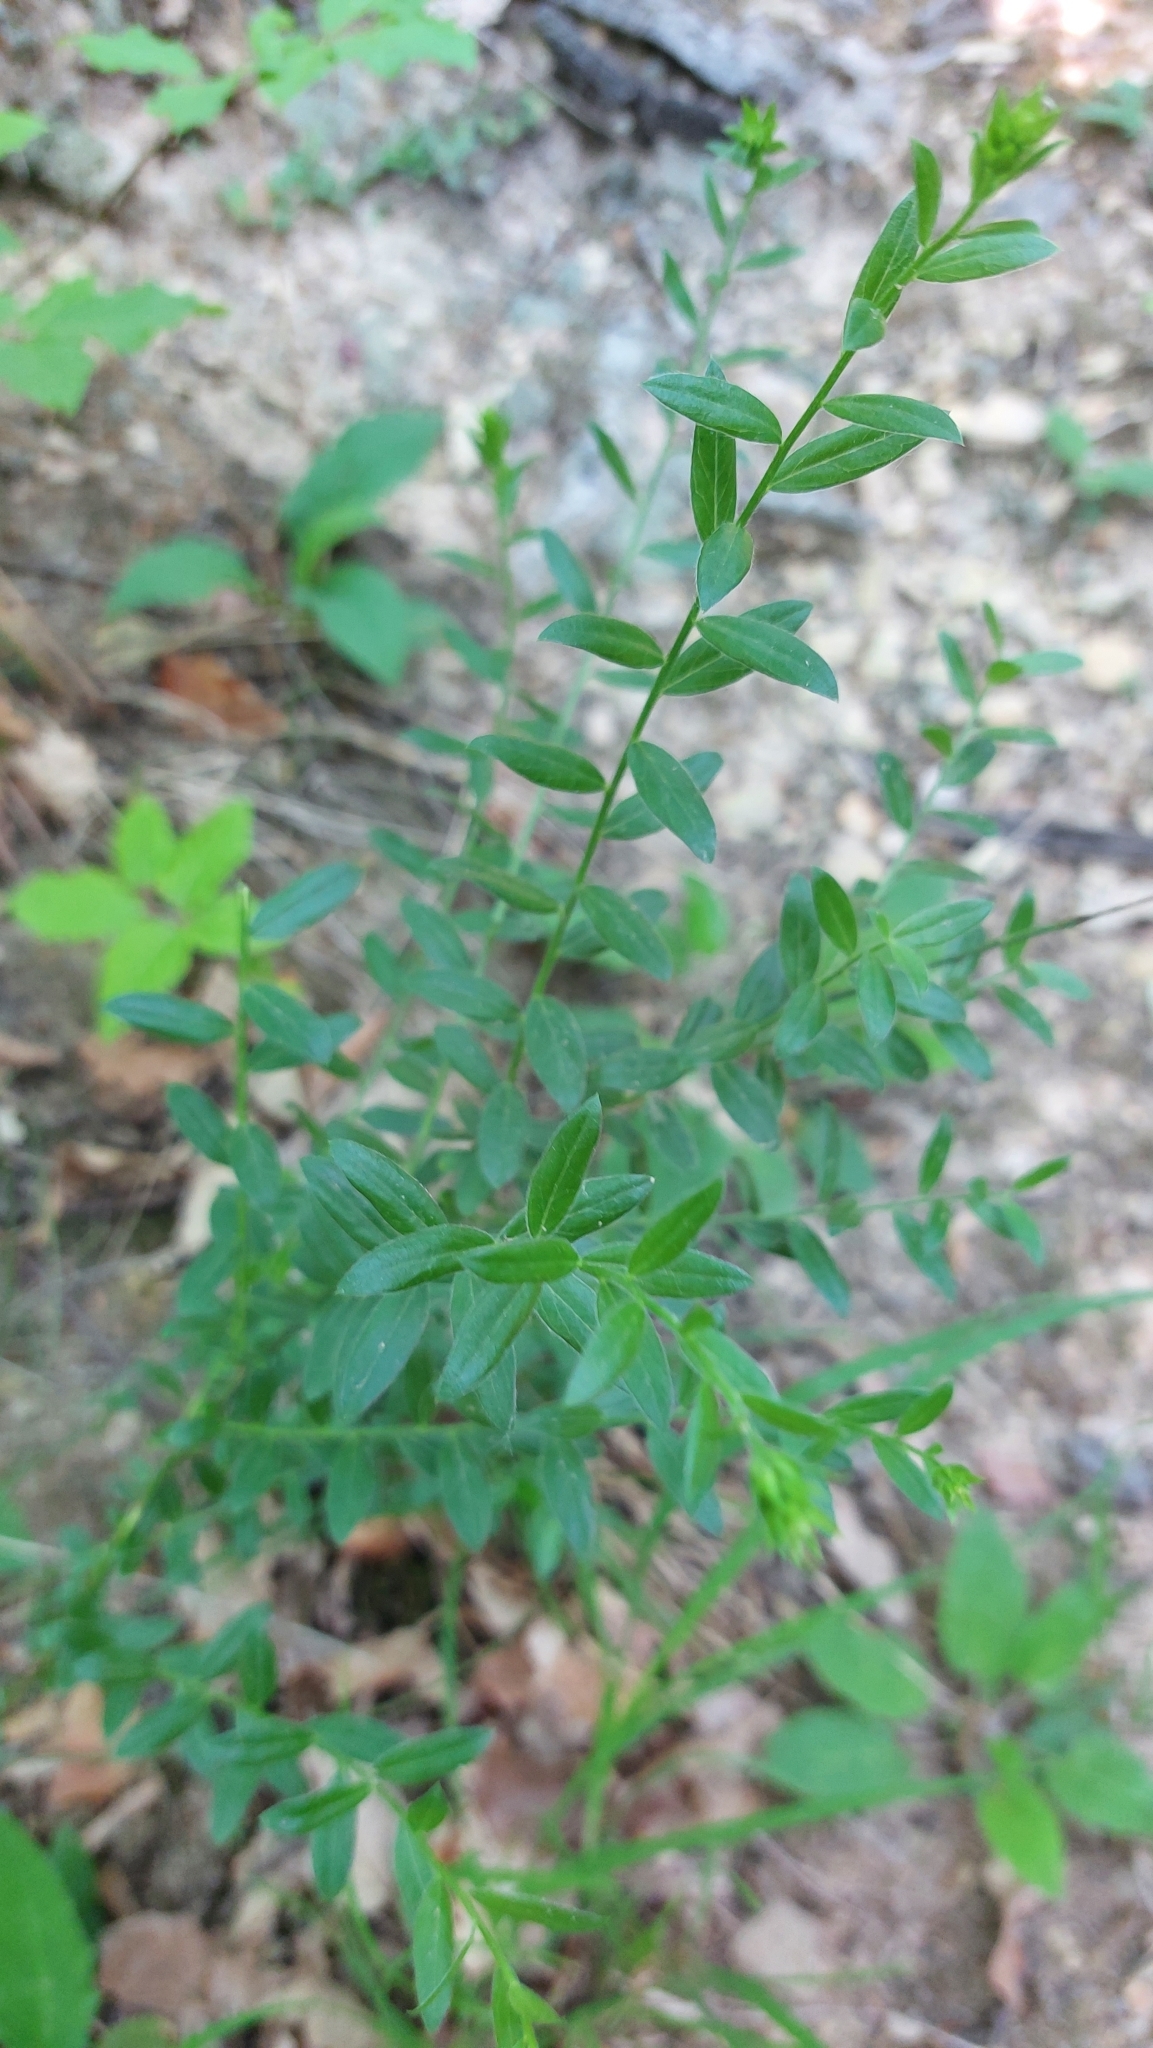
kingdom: Plantae
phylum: Tracheophyta
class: Magnoliopsida
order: Fabales
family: Fabaceae
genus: Genista
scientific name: Genista tinctoria
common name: Dyer's greenweed
